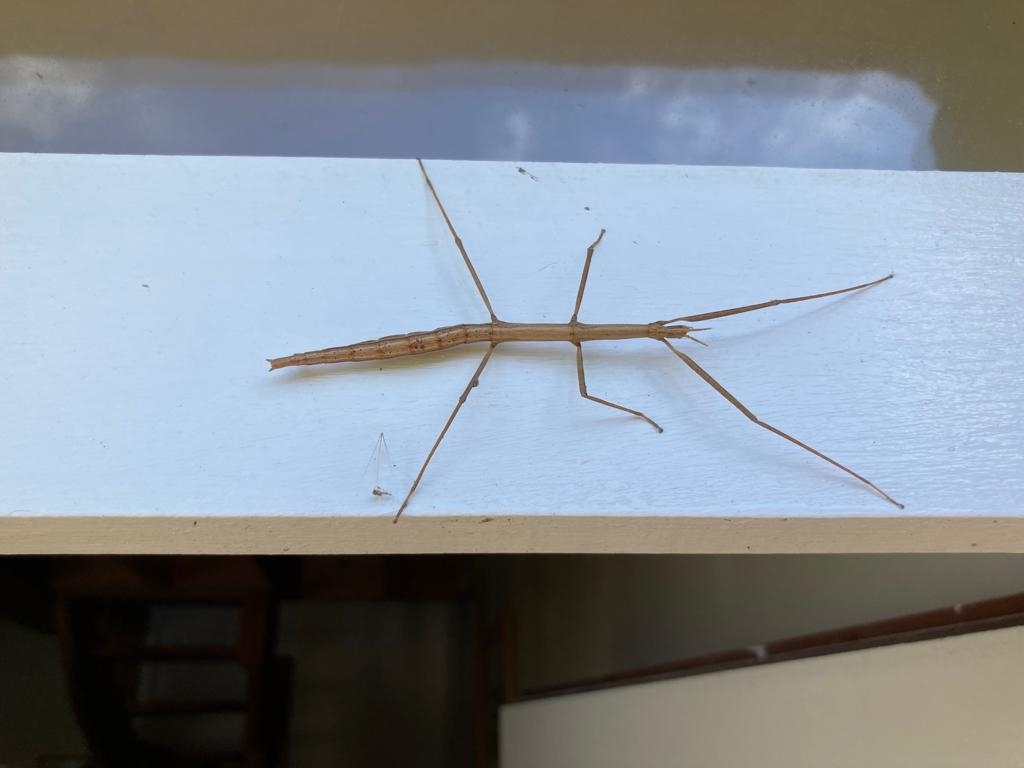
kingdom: Animalia
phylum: Arthropoda
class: Insecta
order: Phasmida
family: Bacillidae
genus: Clonopsis
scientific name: Clonopsis gallica
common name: French stick insect
